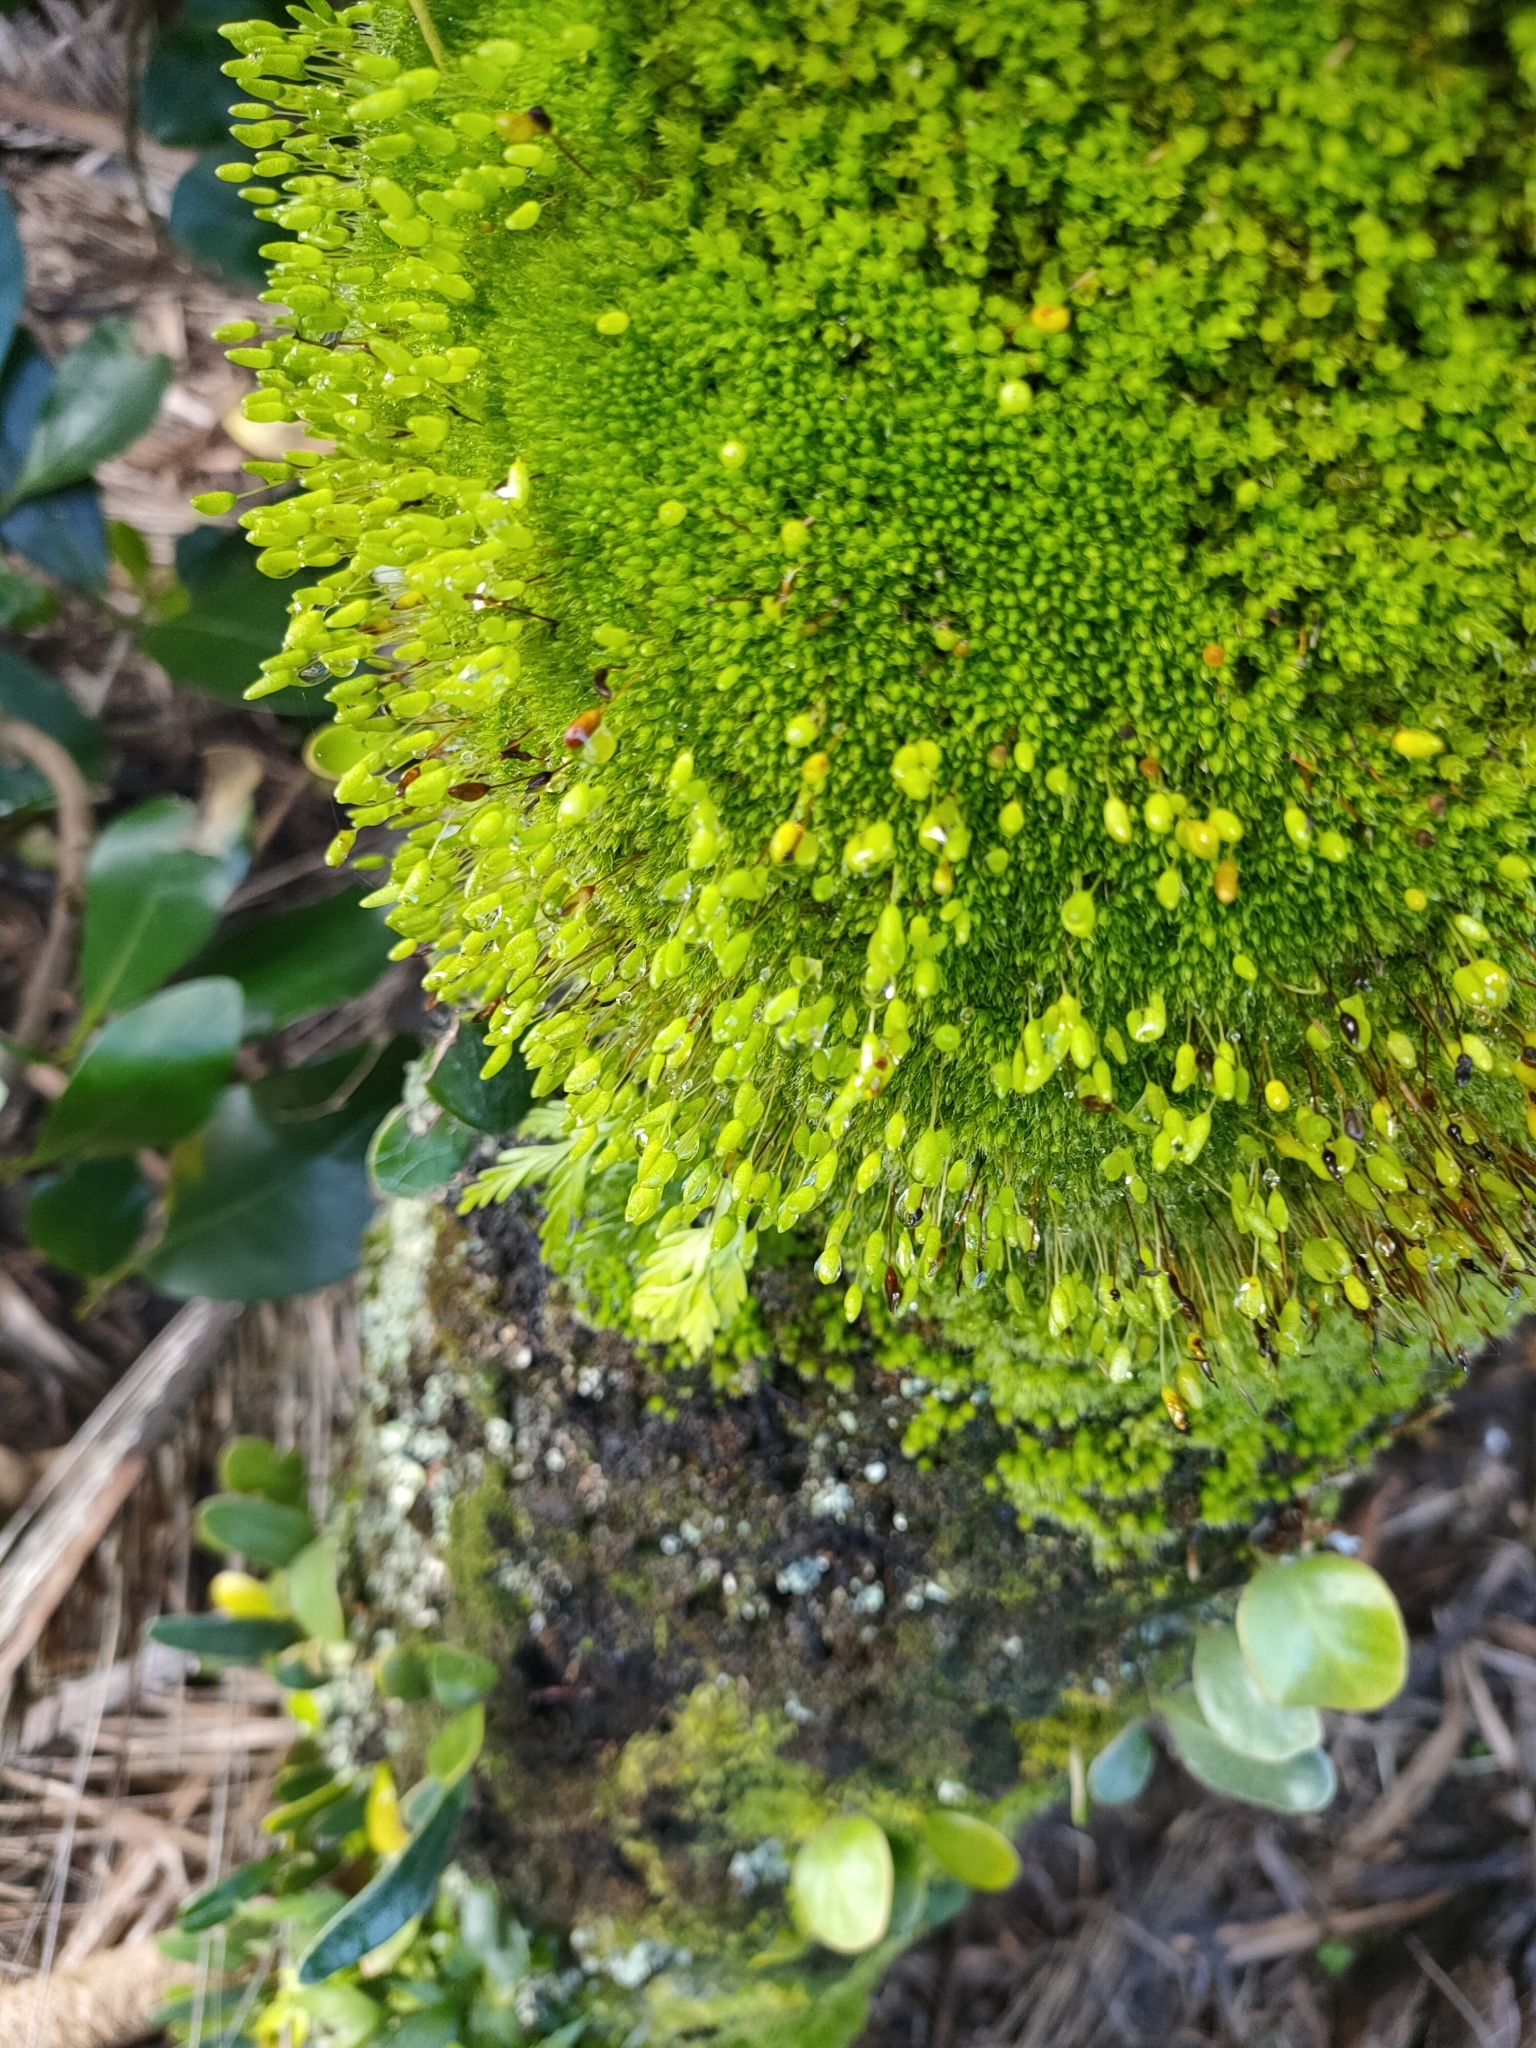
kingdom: Plantae
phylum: Bryophyta
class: Bryopsida
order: Bryales
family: Leptostomataceae
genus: Leptostomum
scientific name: Leptostomum macrocarpon
